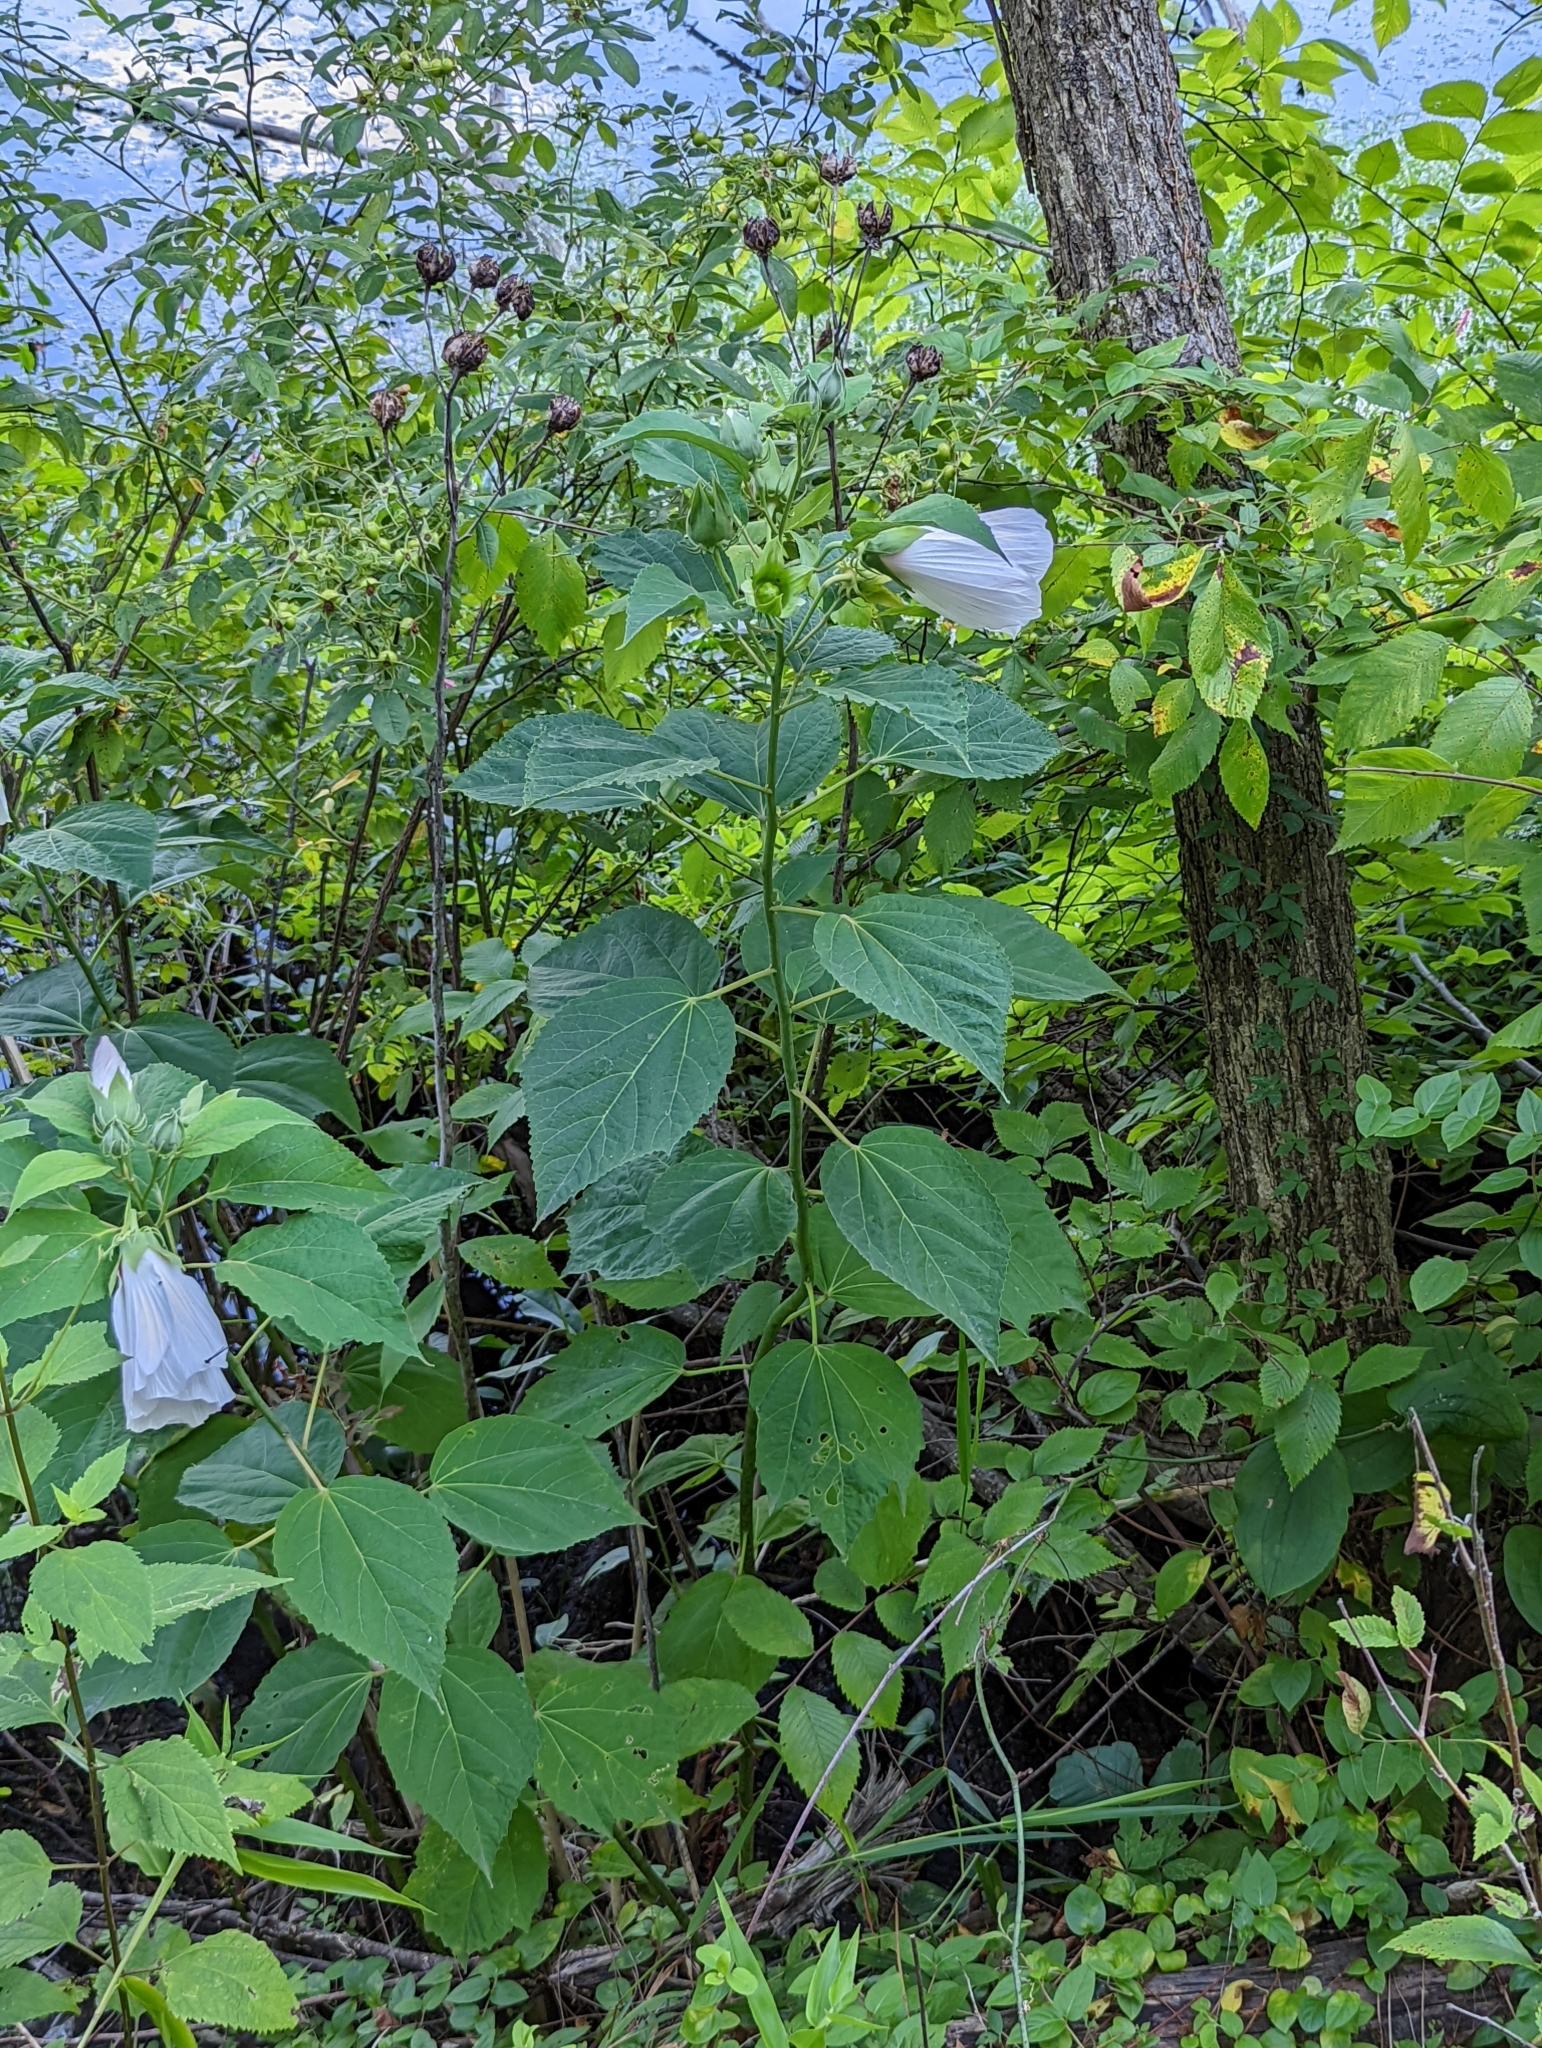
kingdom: Plantae
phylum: Tracheophyta
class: Magnoliopsida
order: Malvales
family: Malvaceae
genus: Hibiscus
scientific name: Hibiscus moscheutos
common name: Common rose-mallow
